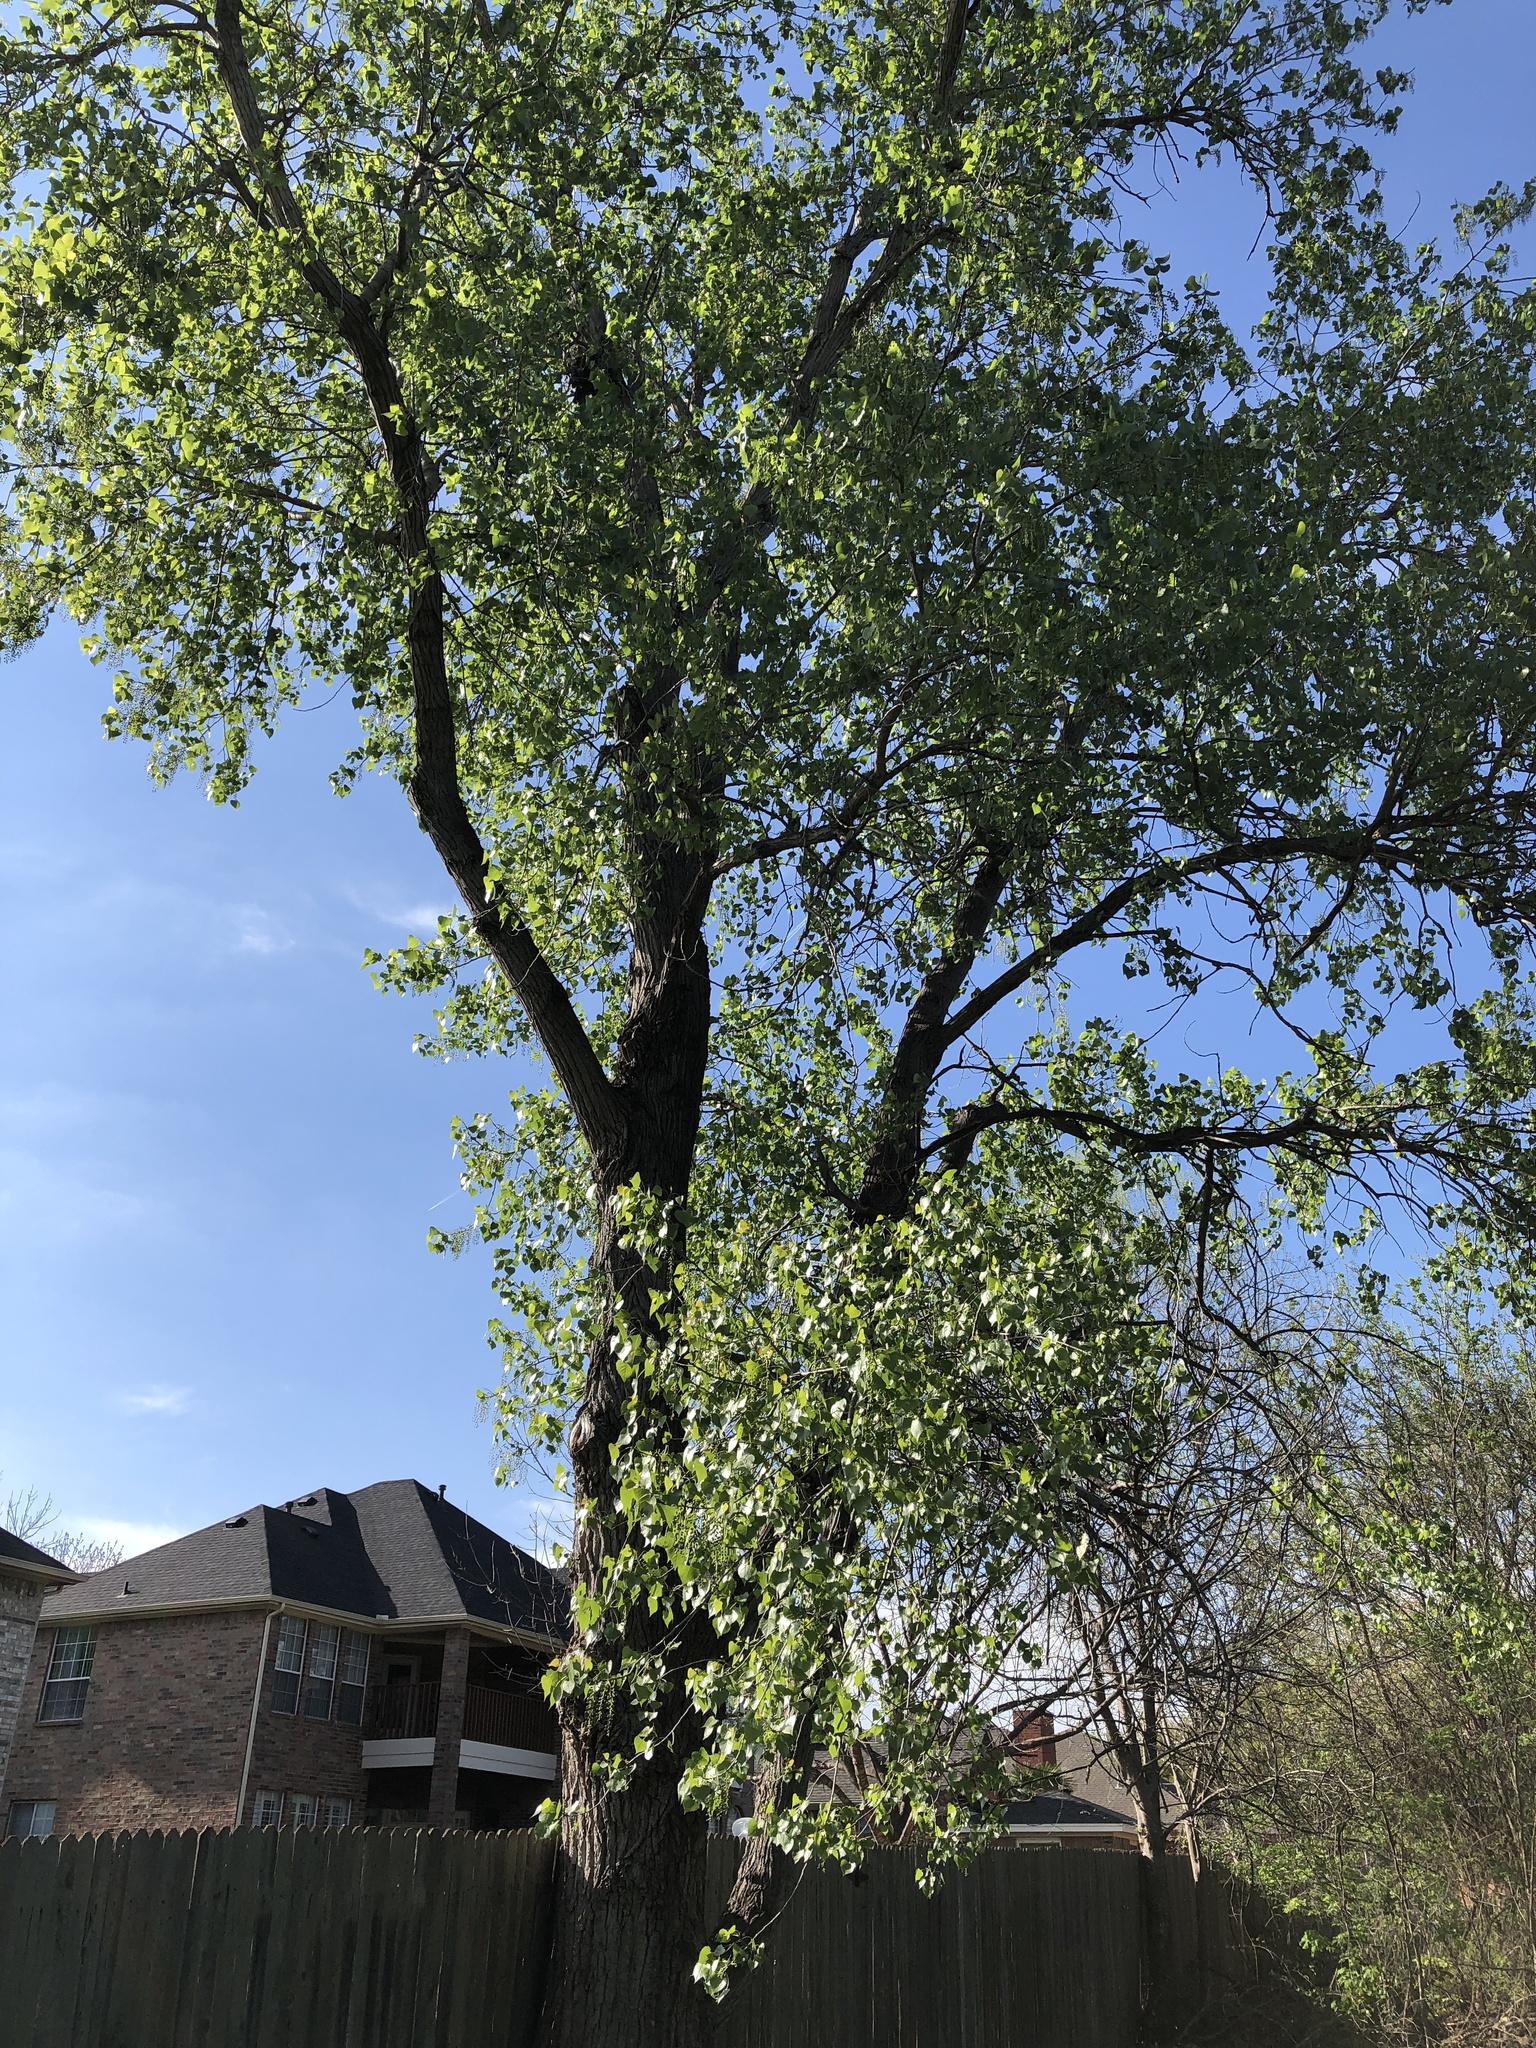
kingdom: Plantae
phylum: Tracheophyta
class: Magnoliopsida
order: Malpighiales
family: Salicaceae
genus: Populus
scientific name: Populus deltoides
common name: Eastern cottonwood
